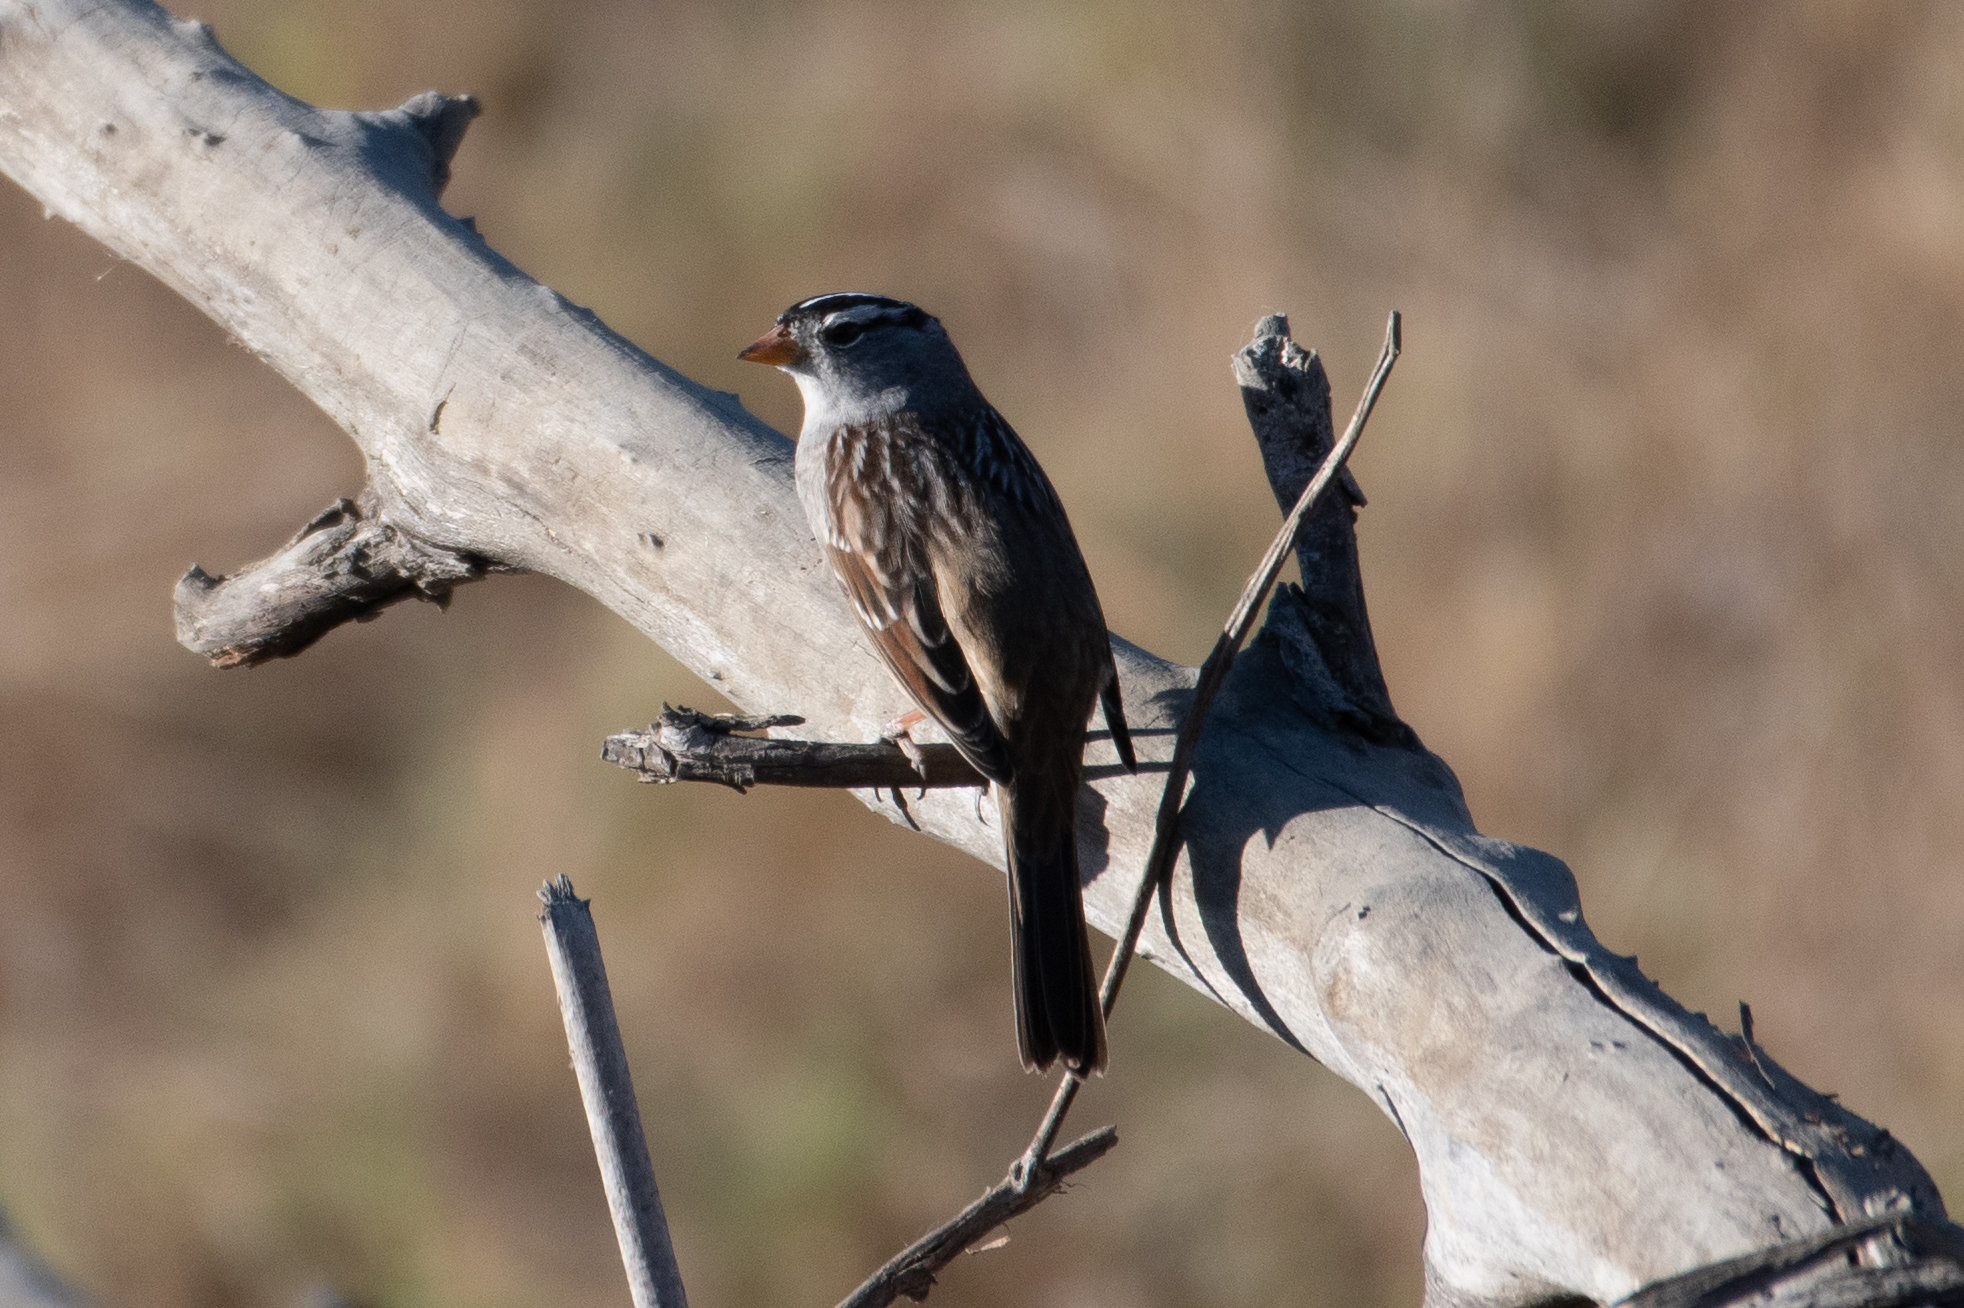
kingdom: Animalia
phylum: Chordata
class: Aves
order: Passeriformes
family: Passerellidae
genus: Zonotrichia
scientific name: Zonotrichia leucophrys
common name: White-crowned sparrow
